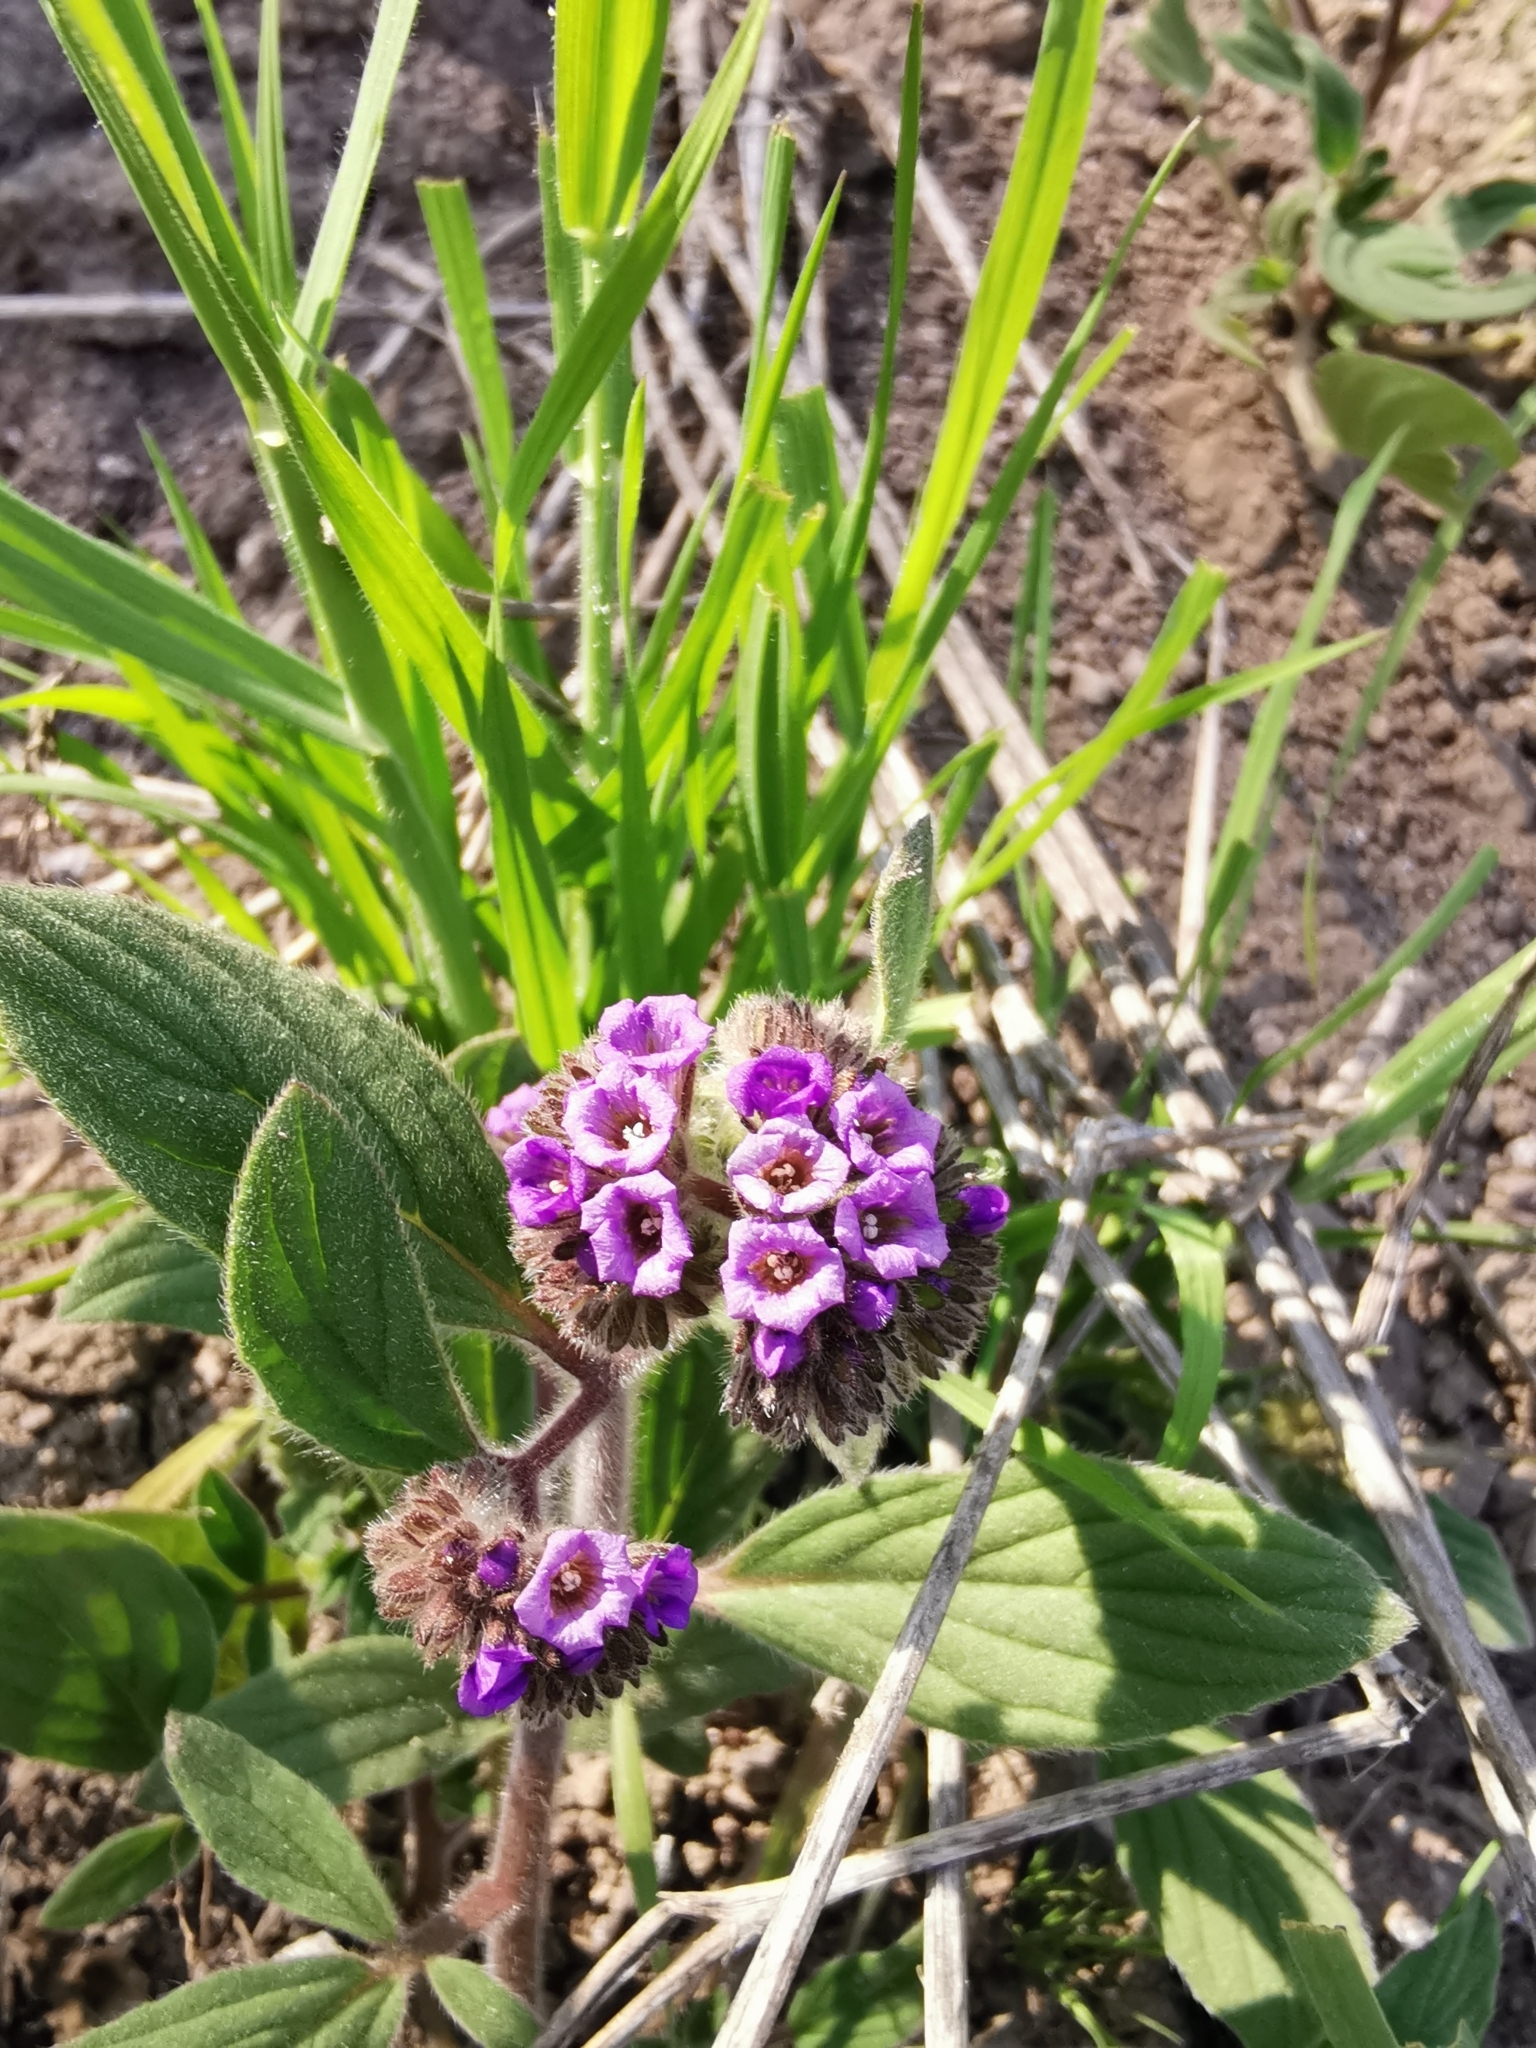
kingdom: Plantae
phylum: Tracheophyta
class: Magnoliopsida
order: Boraginales
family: Hydrophyllaceae
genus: Phacelia
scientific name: Phacelia brachyantha
